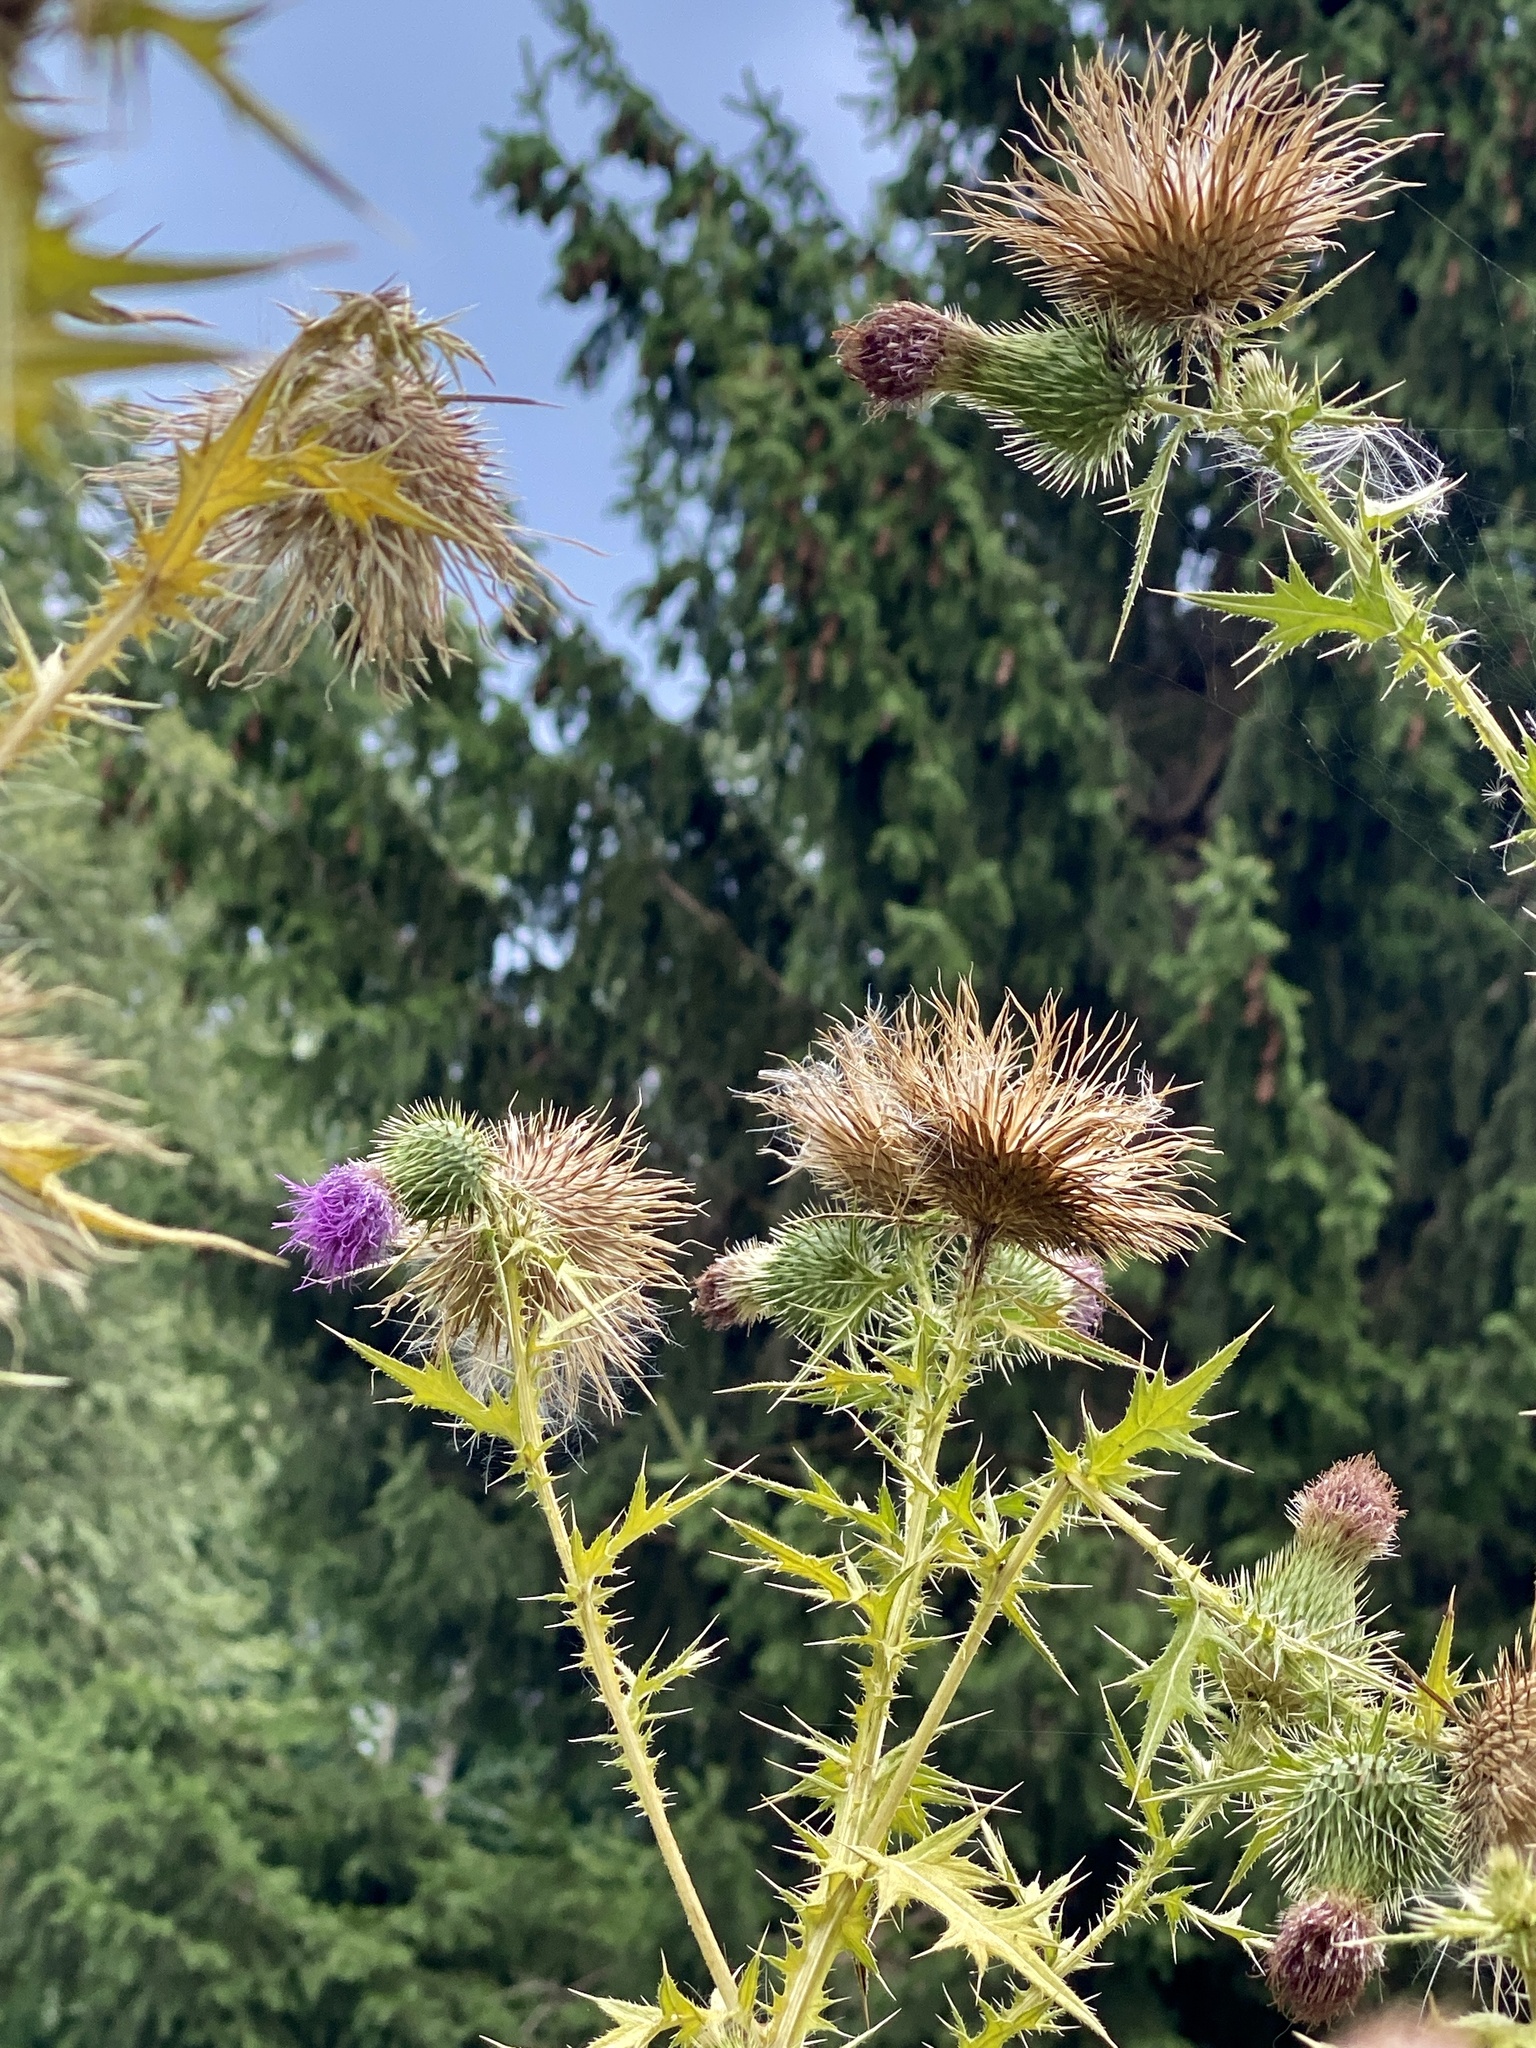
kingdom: Plantae
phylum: Tracheophyta
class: Magnoliopsida
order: Asterales
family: Asteraceae
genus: Cirsium
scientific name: Cirsium vulgare
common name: Bull thistle
